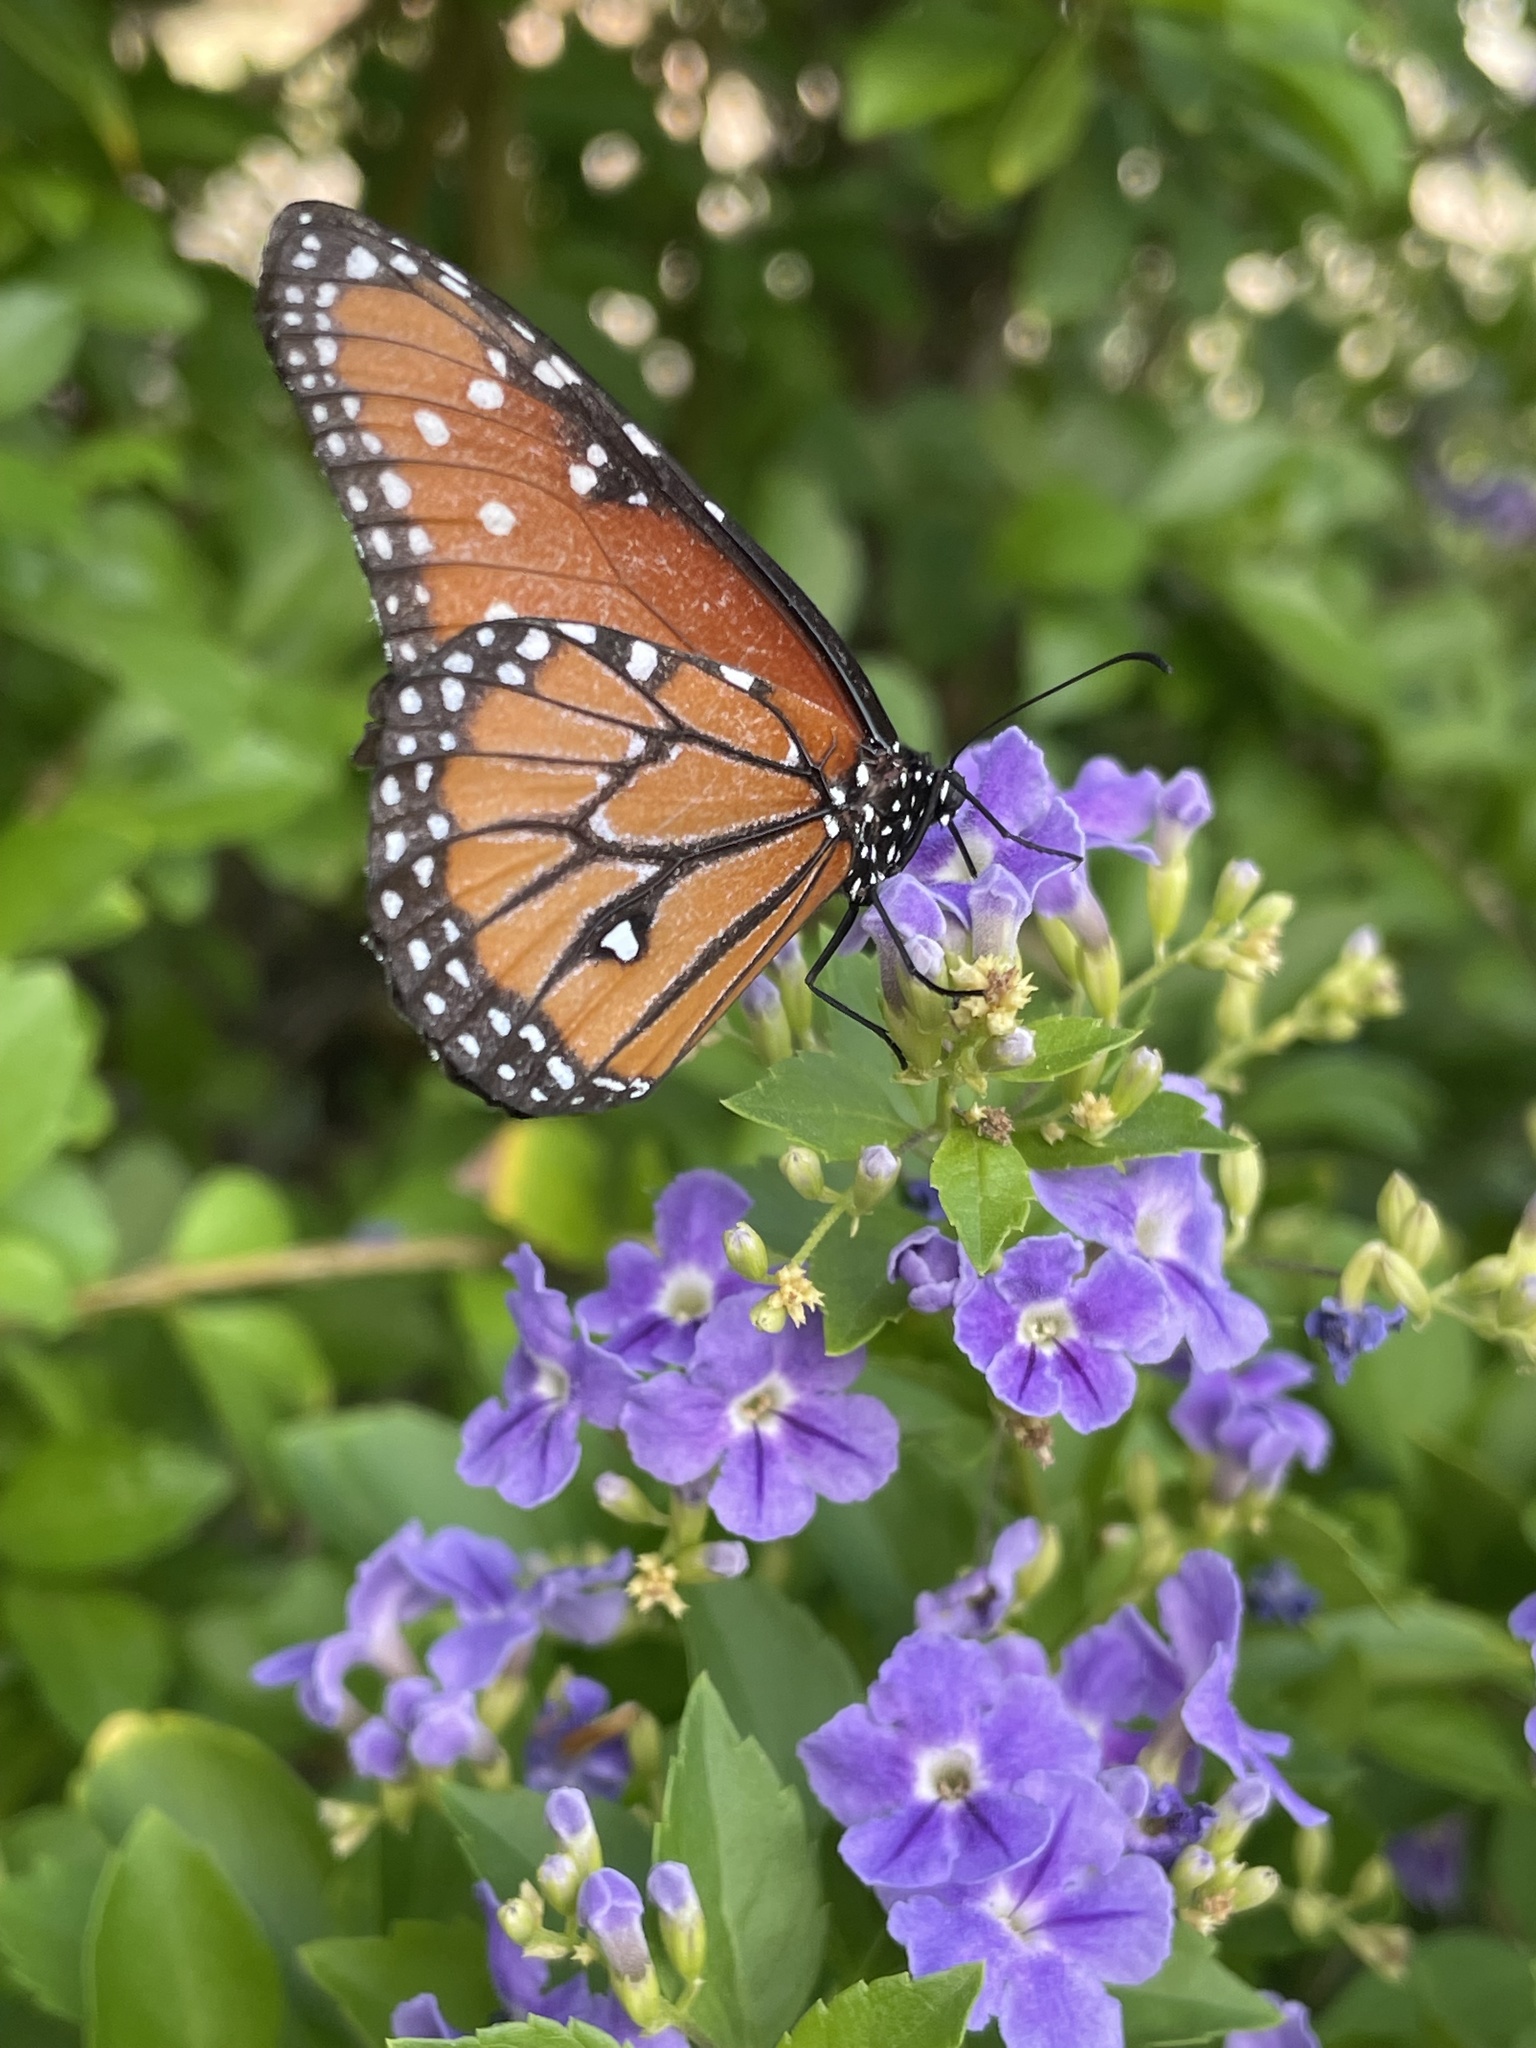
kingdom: Animalia
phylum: Arthropoda
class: Insecta
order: Lepidoptera
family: Nymphalidae
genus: Danaus
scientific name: Danaus gilippus
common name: Queen
